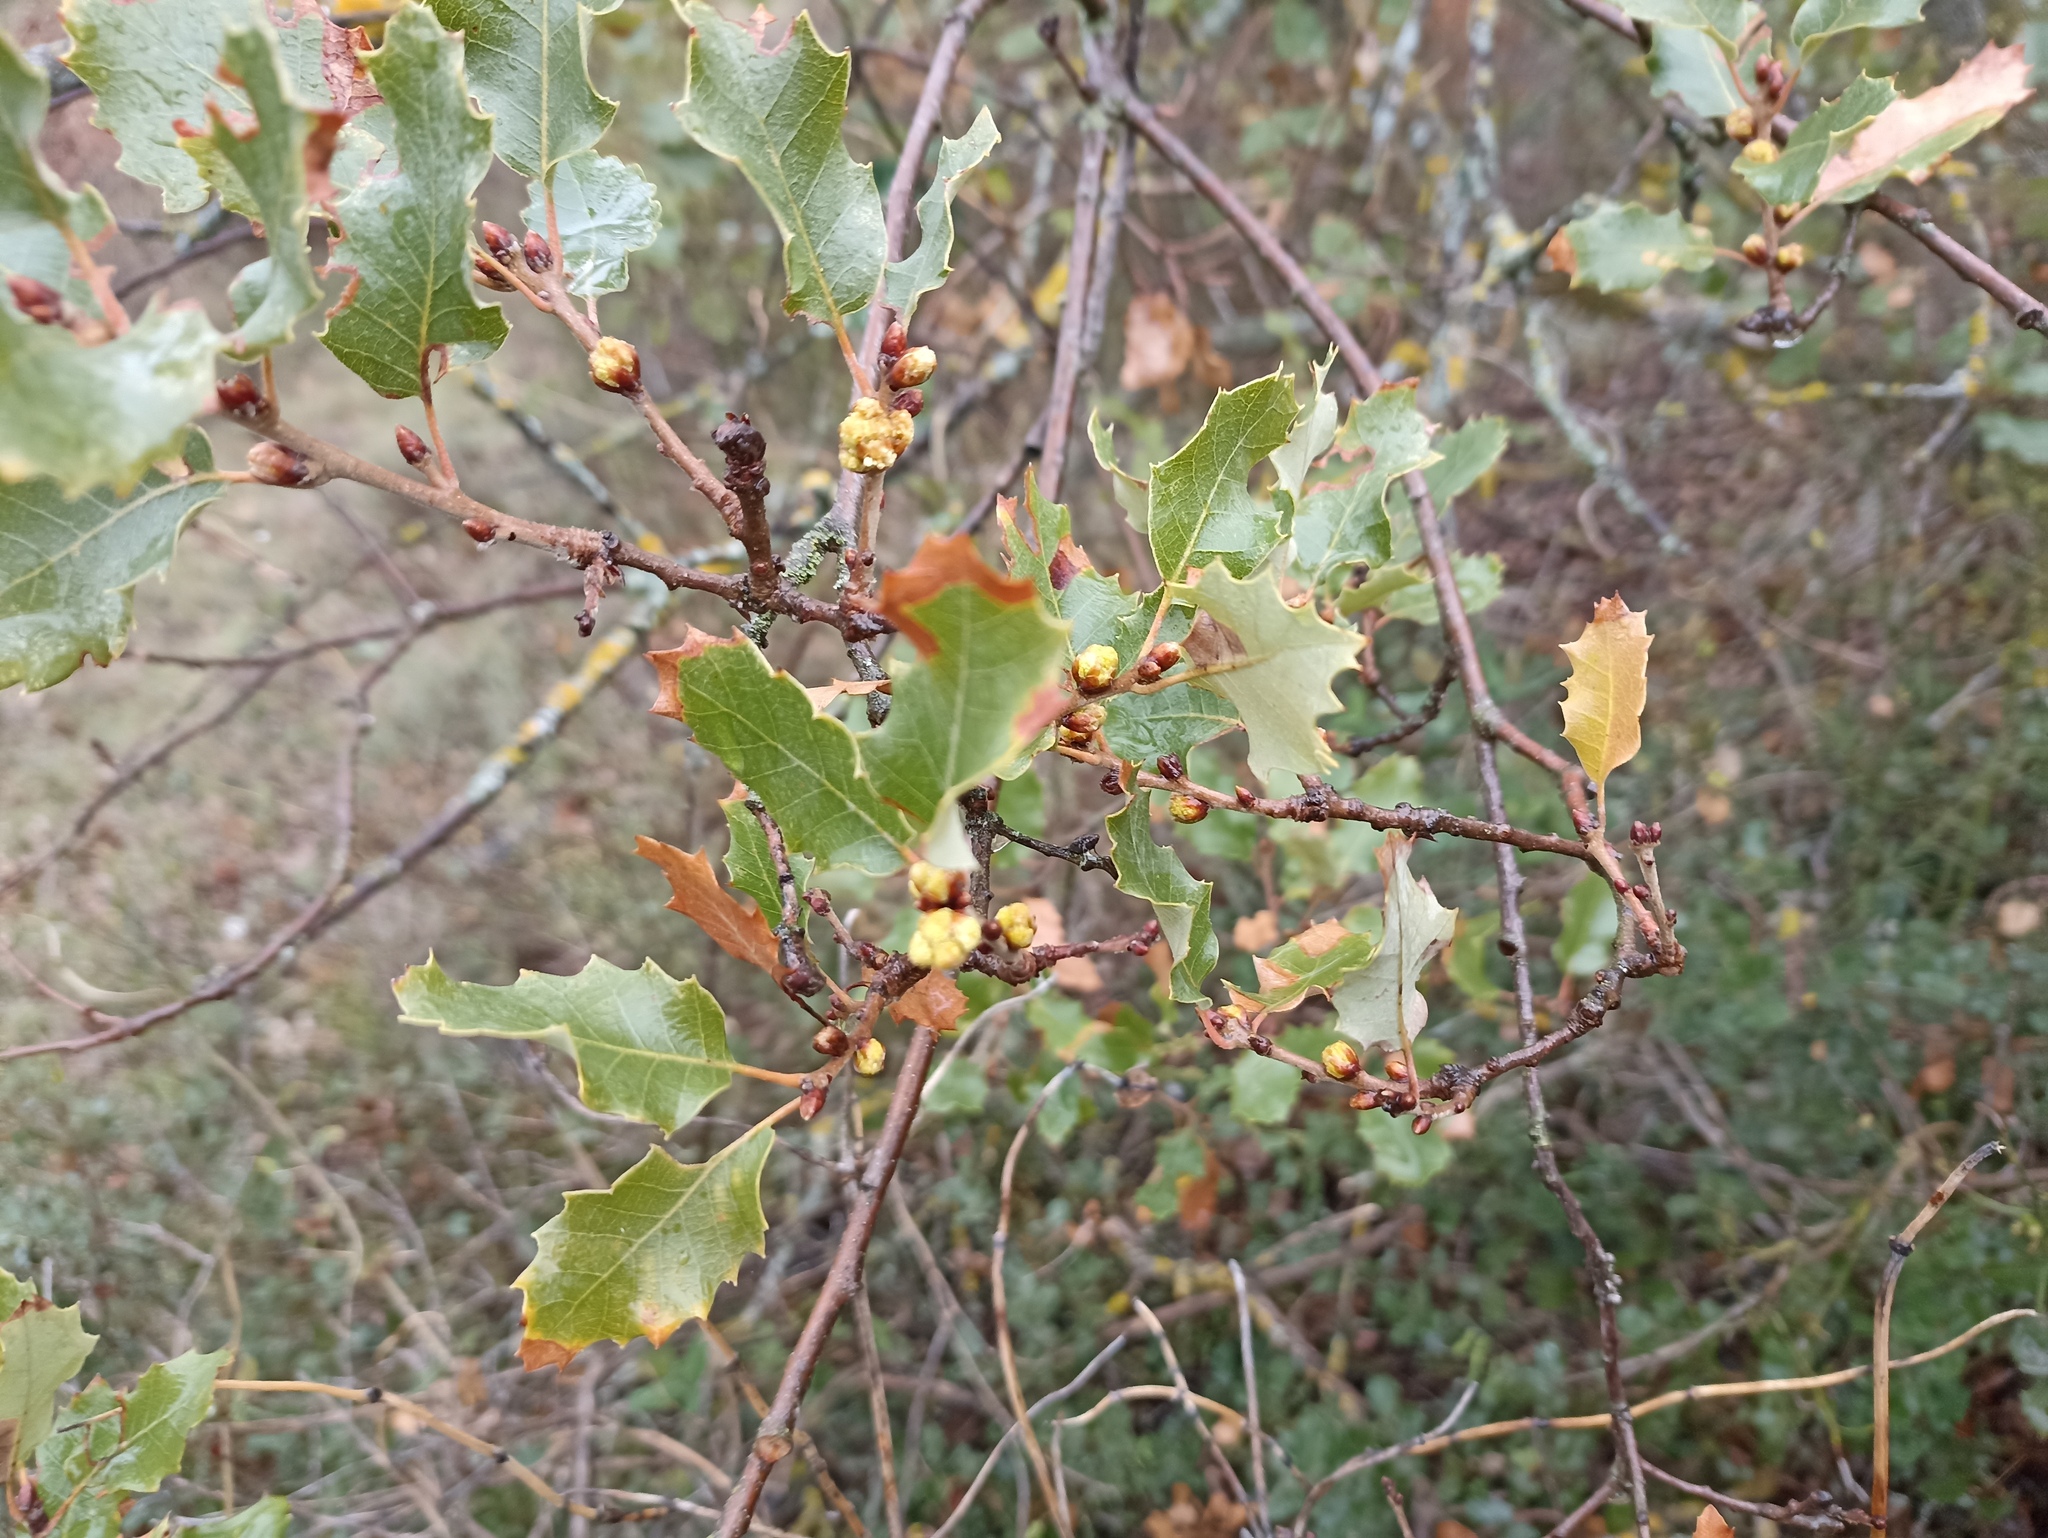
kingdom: Plantae
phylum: Tracheophyta
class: Magnoliopsida
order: Fagales
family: Fagaceae
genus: Quercus
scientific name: Quercus faginea
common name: Gall oak tree
